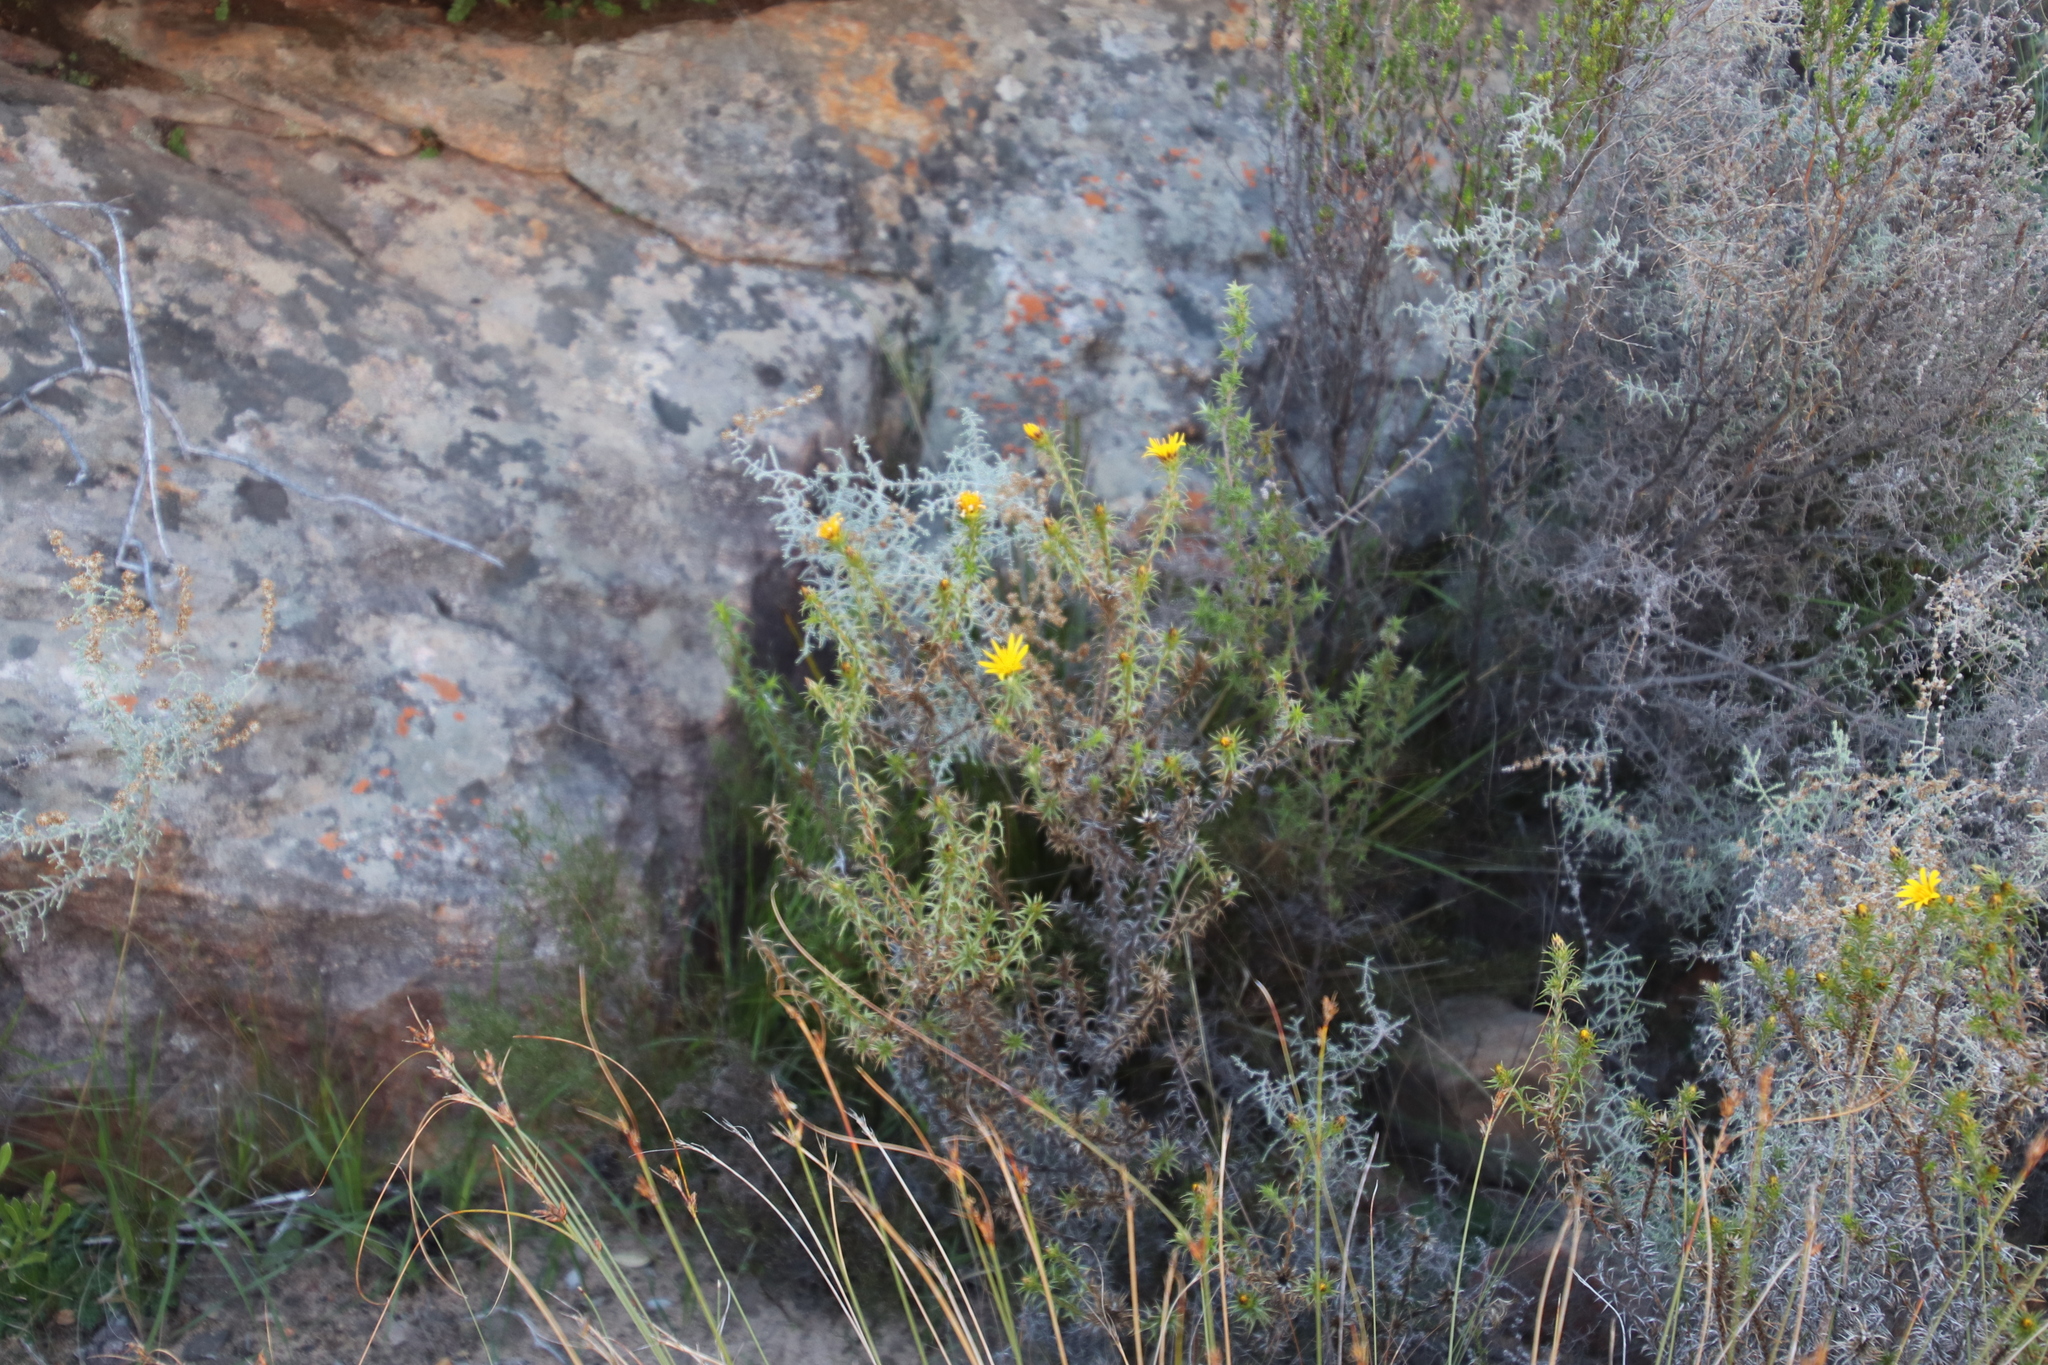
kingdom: Plantae
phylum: Tracheophyta
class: Magnoliopsida
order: Asterales
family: Asteraceae
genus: Cullumia
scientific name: Cullumia bisulca
